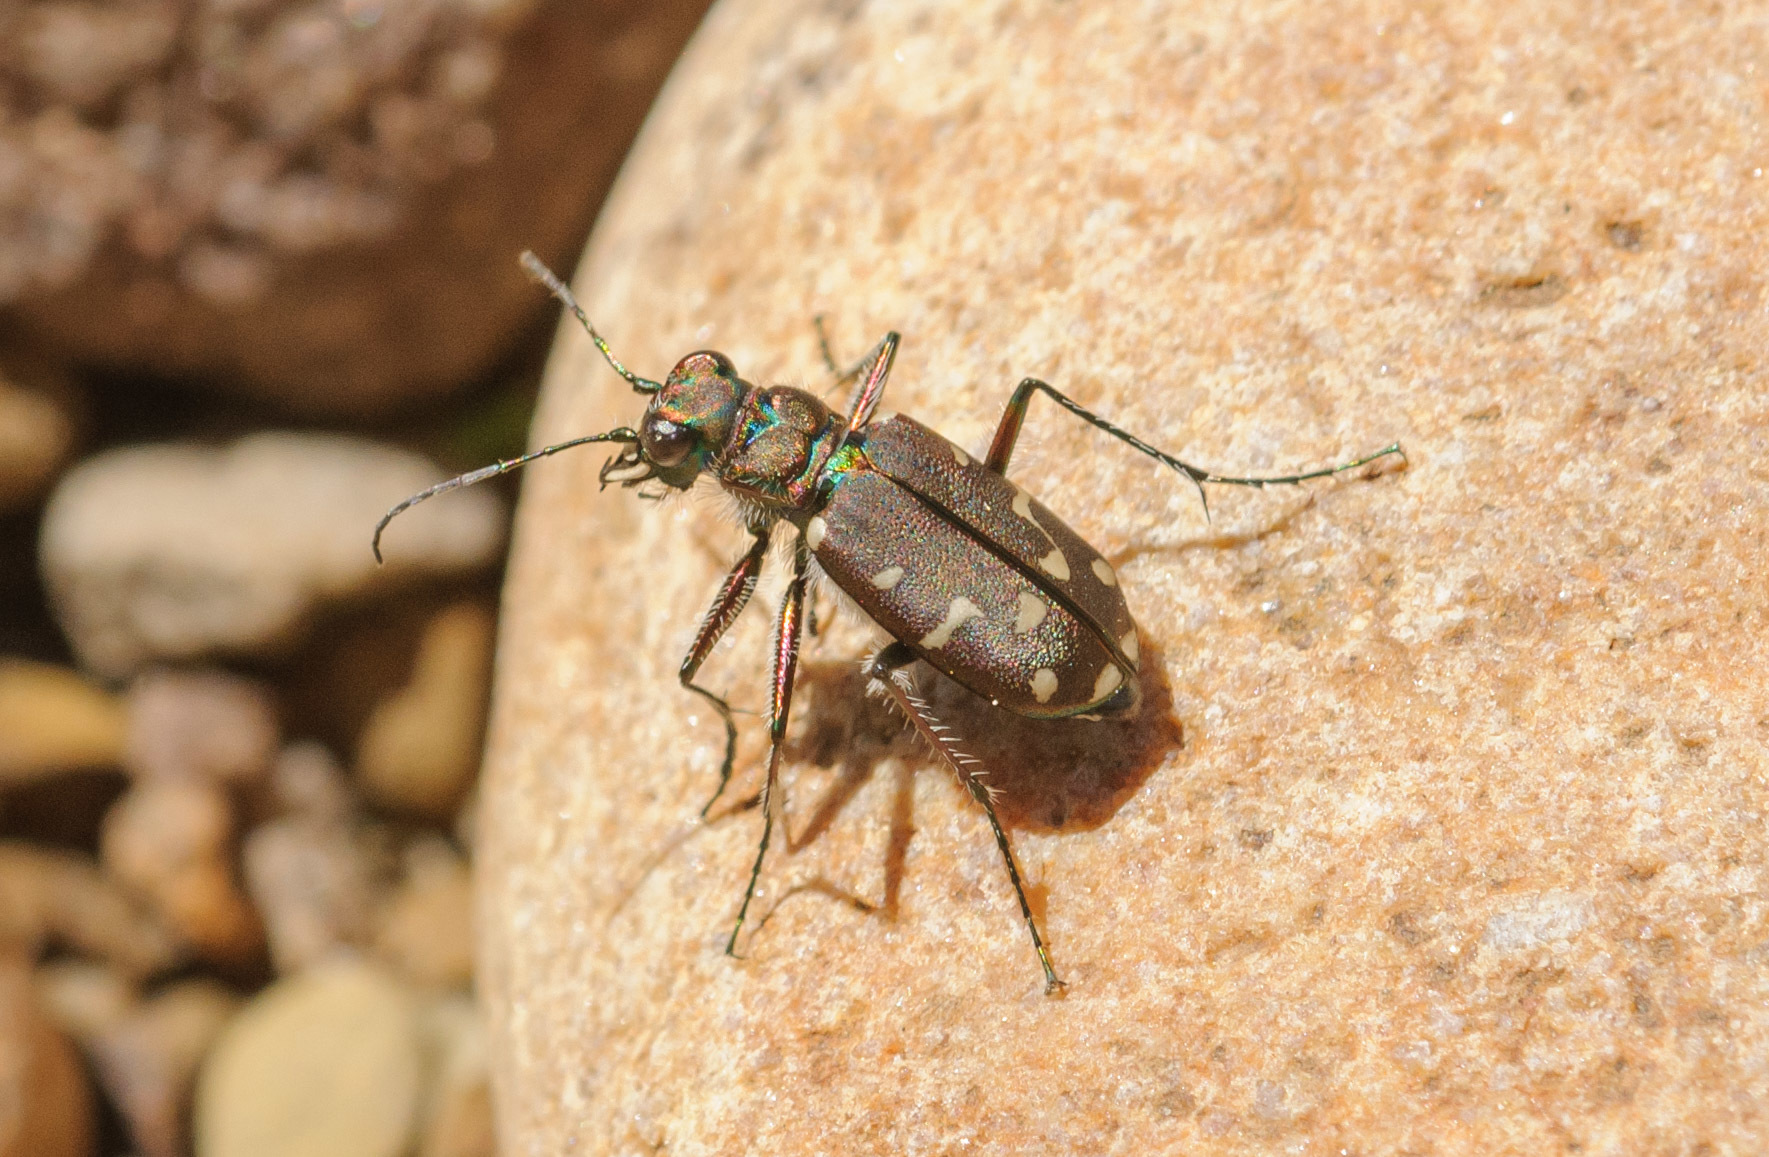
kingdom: Animalia
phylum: Arthropoda
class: Insecta
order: Coleoptera
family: Carabidae
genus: Cicindela
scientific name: Cicindela oregona
